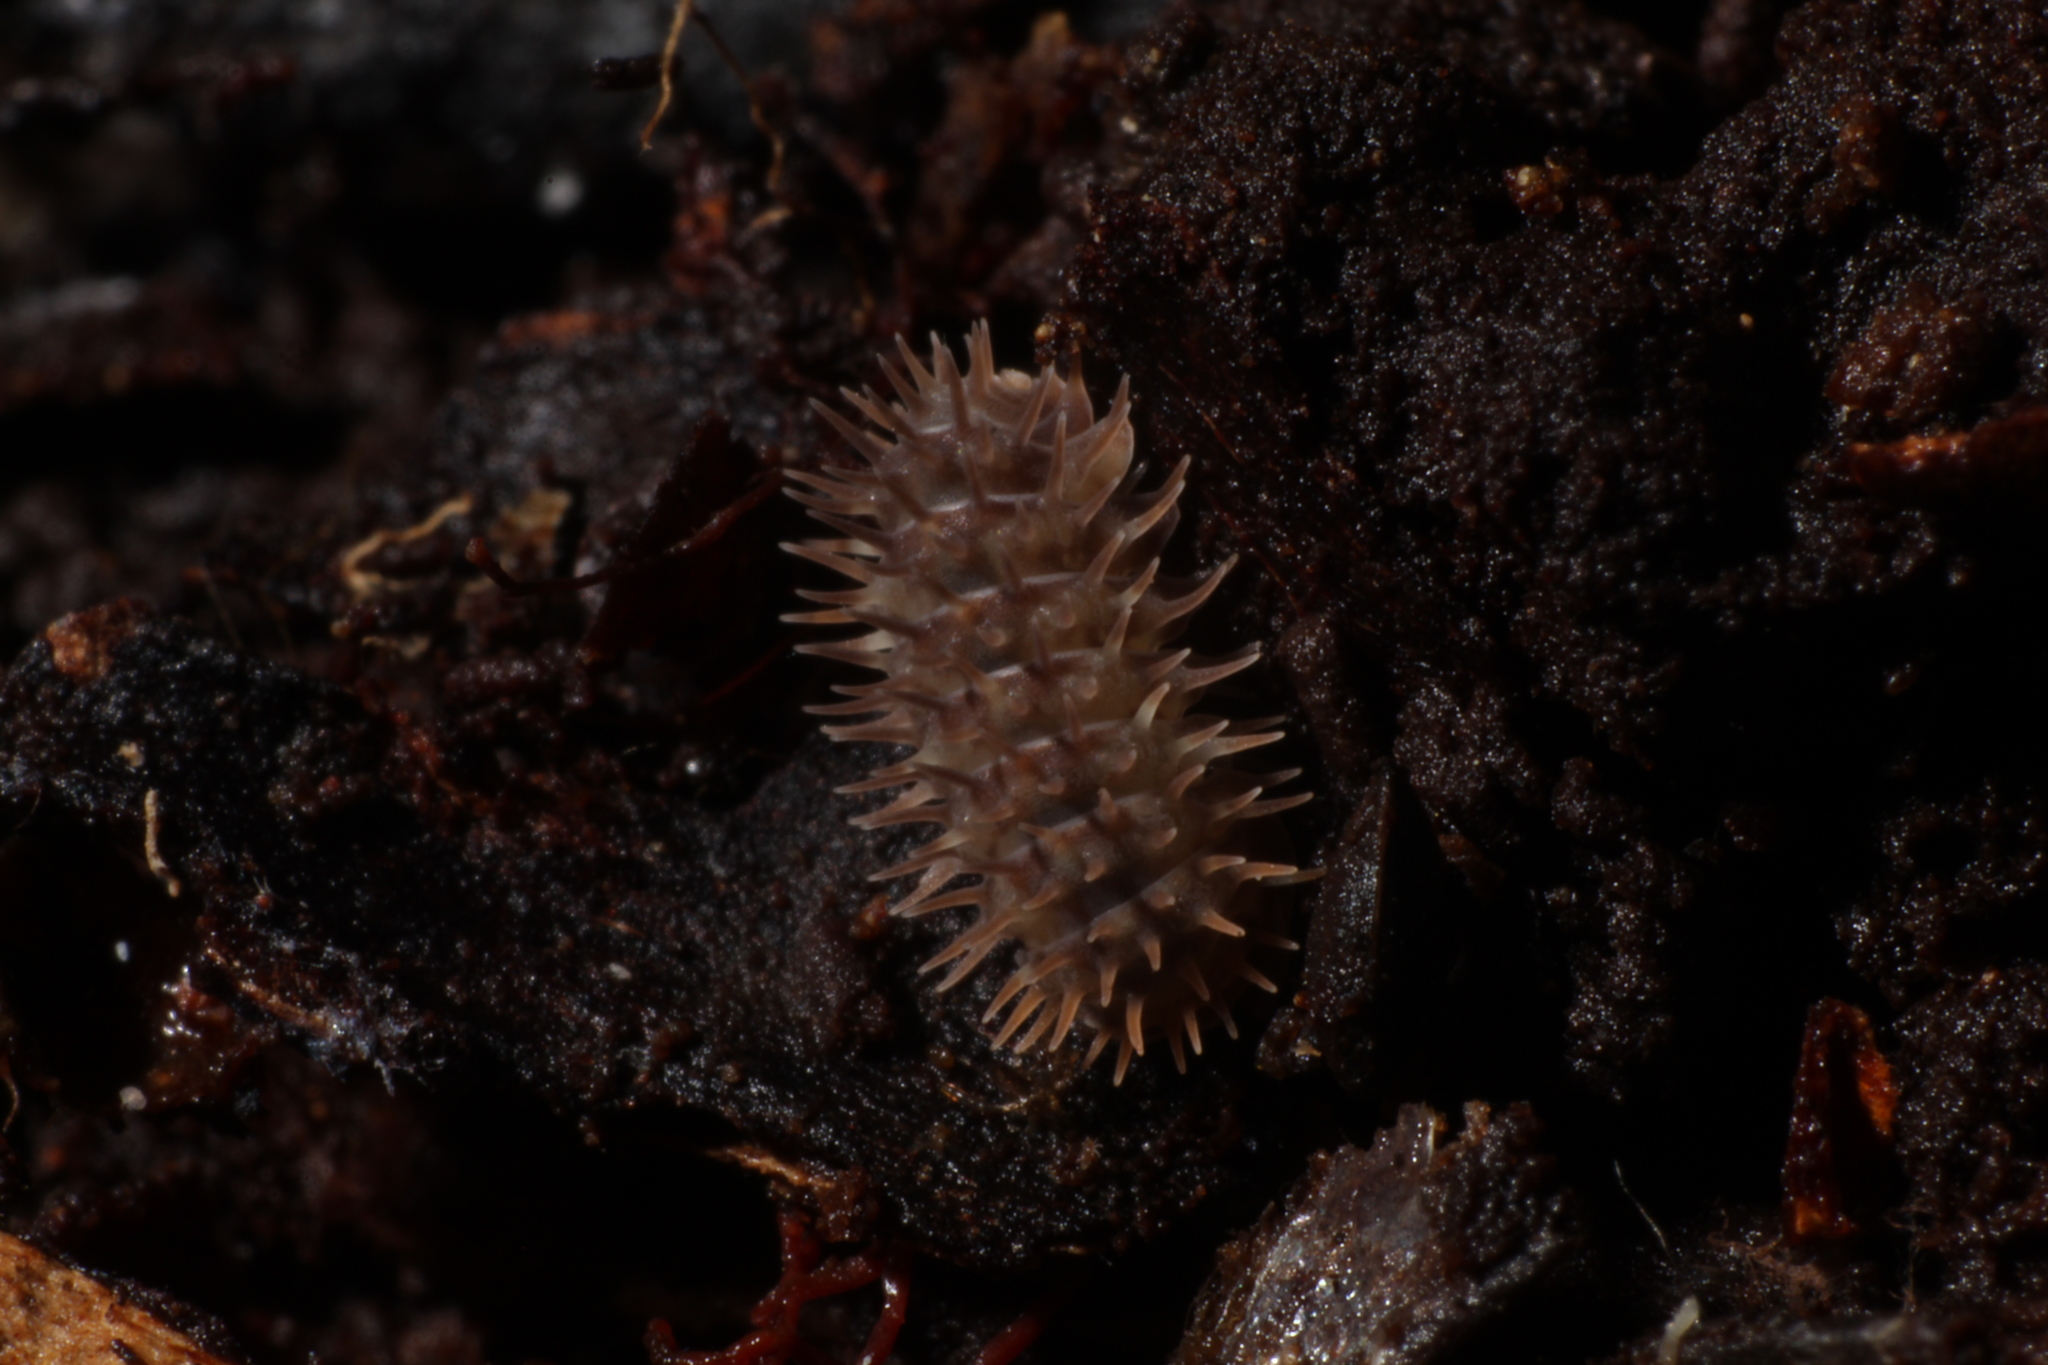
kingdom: Animalia
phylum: Arthropoda
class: Malacostraca
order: Isopoda
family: Armadillidae
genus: Pseudolaureola
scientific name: Pseudolaureola wilsmorei
